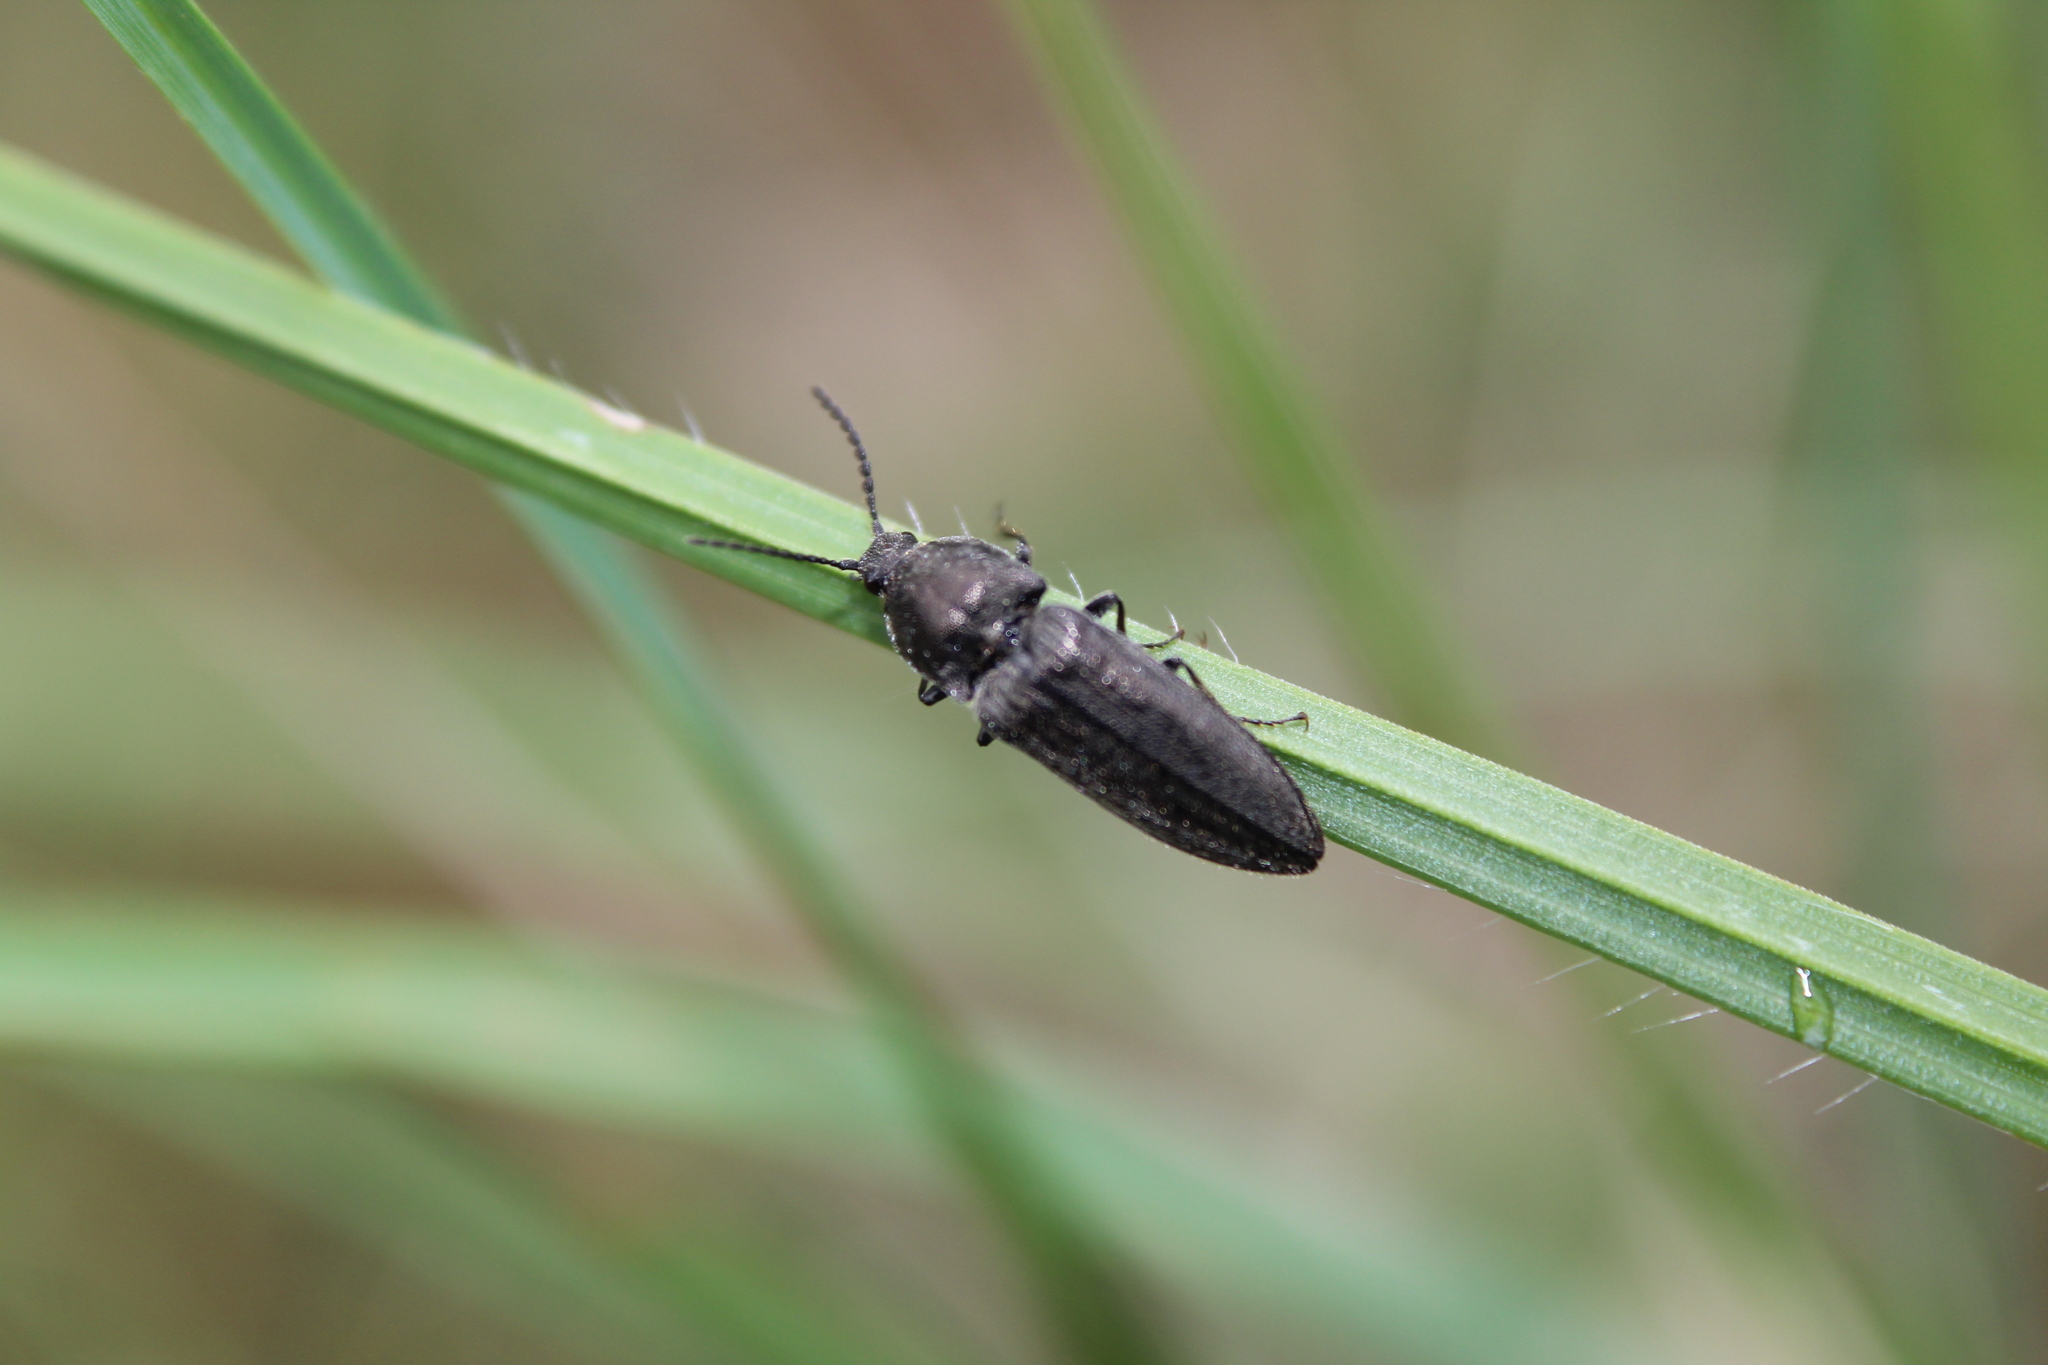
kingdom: Animalia
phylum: Arthropoda
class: Insecta
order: Coleoptera
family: Elateridae
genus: Cidnopus
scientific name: Cidnopus pilosus
